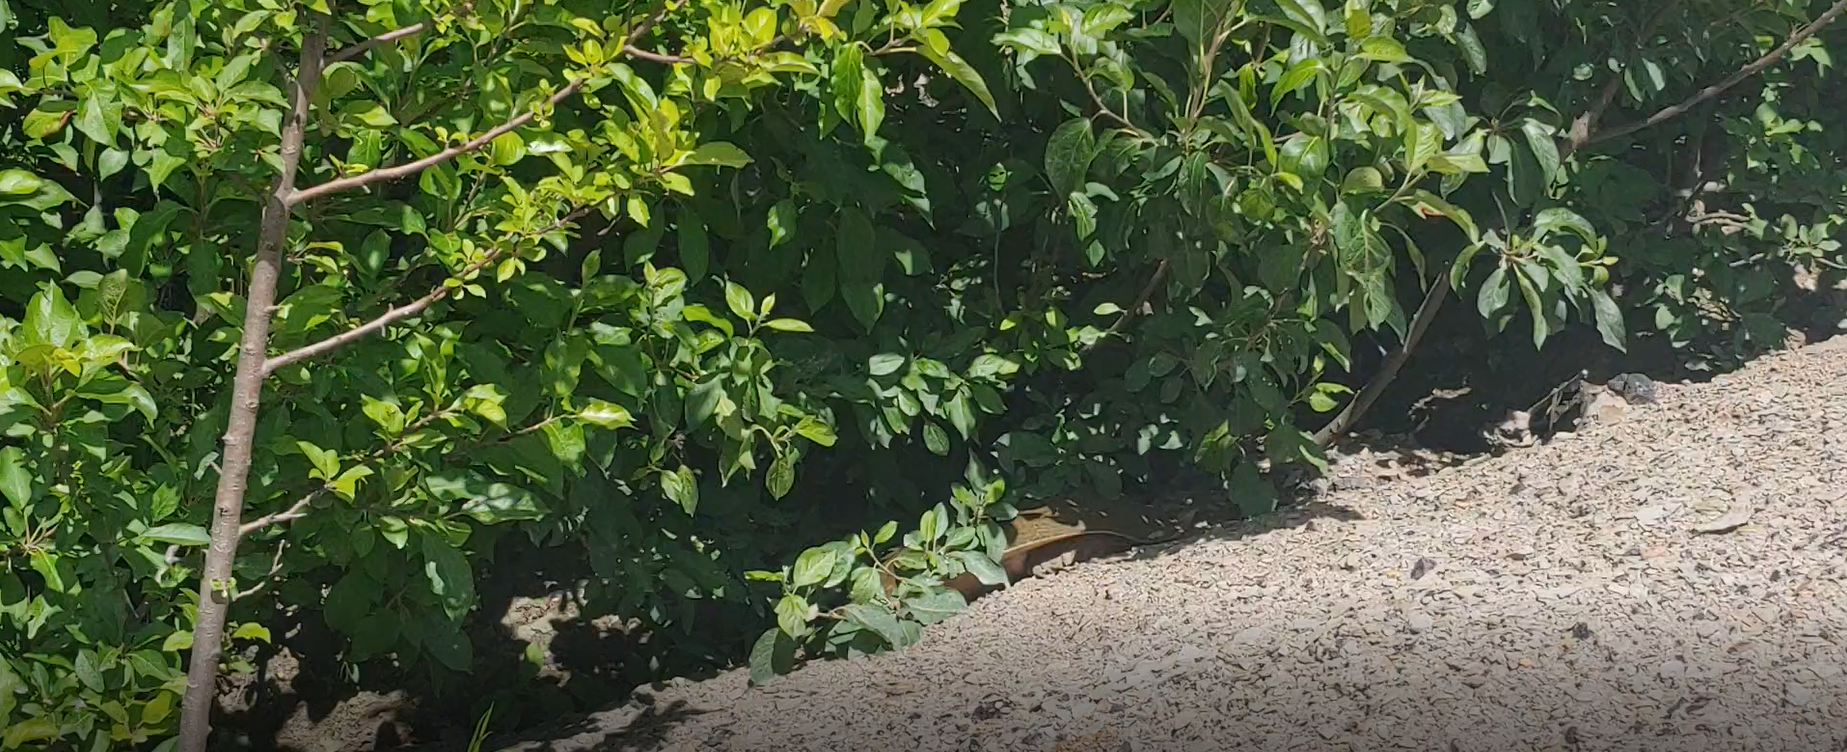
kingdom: Animalia
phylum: Chordata
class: Testudines
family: Trionychidae
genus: Apalone
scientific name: Apalone spinifera
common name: Spiny softshell turtle
